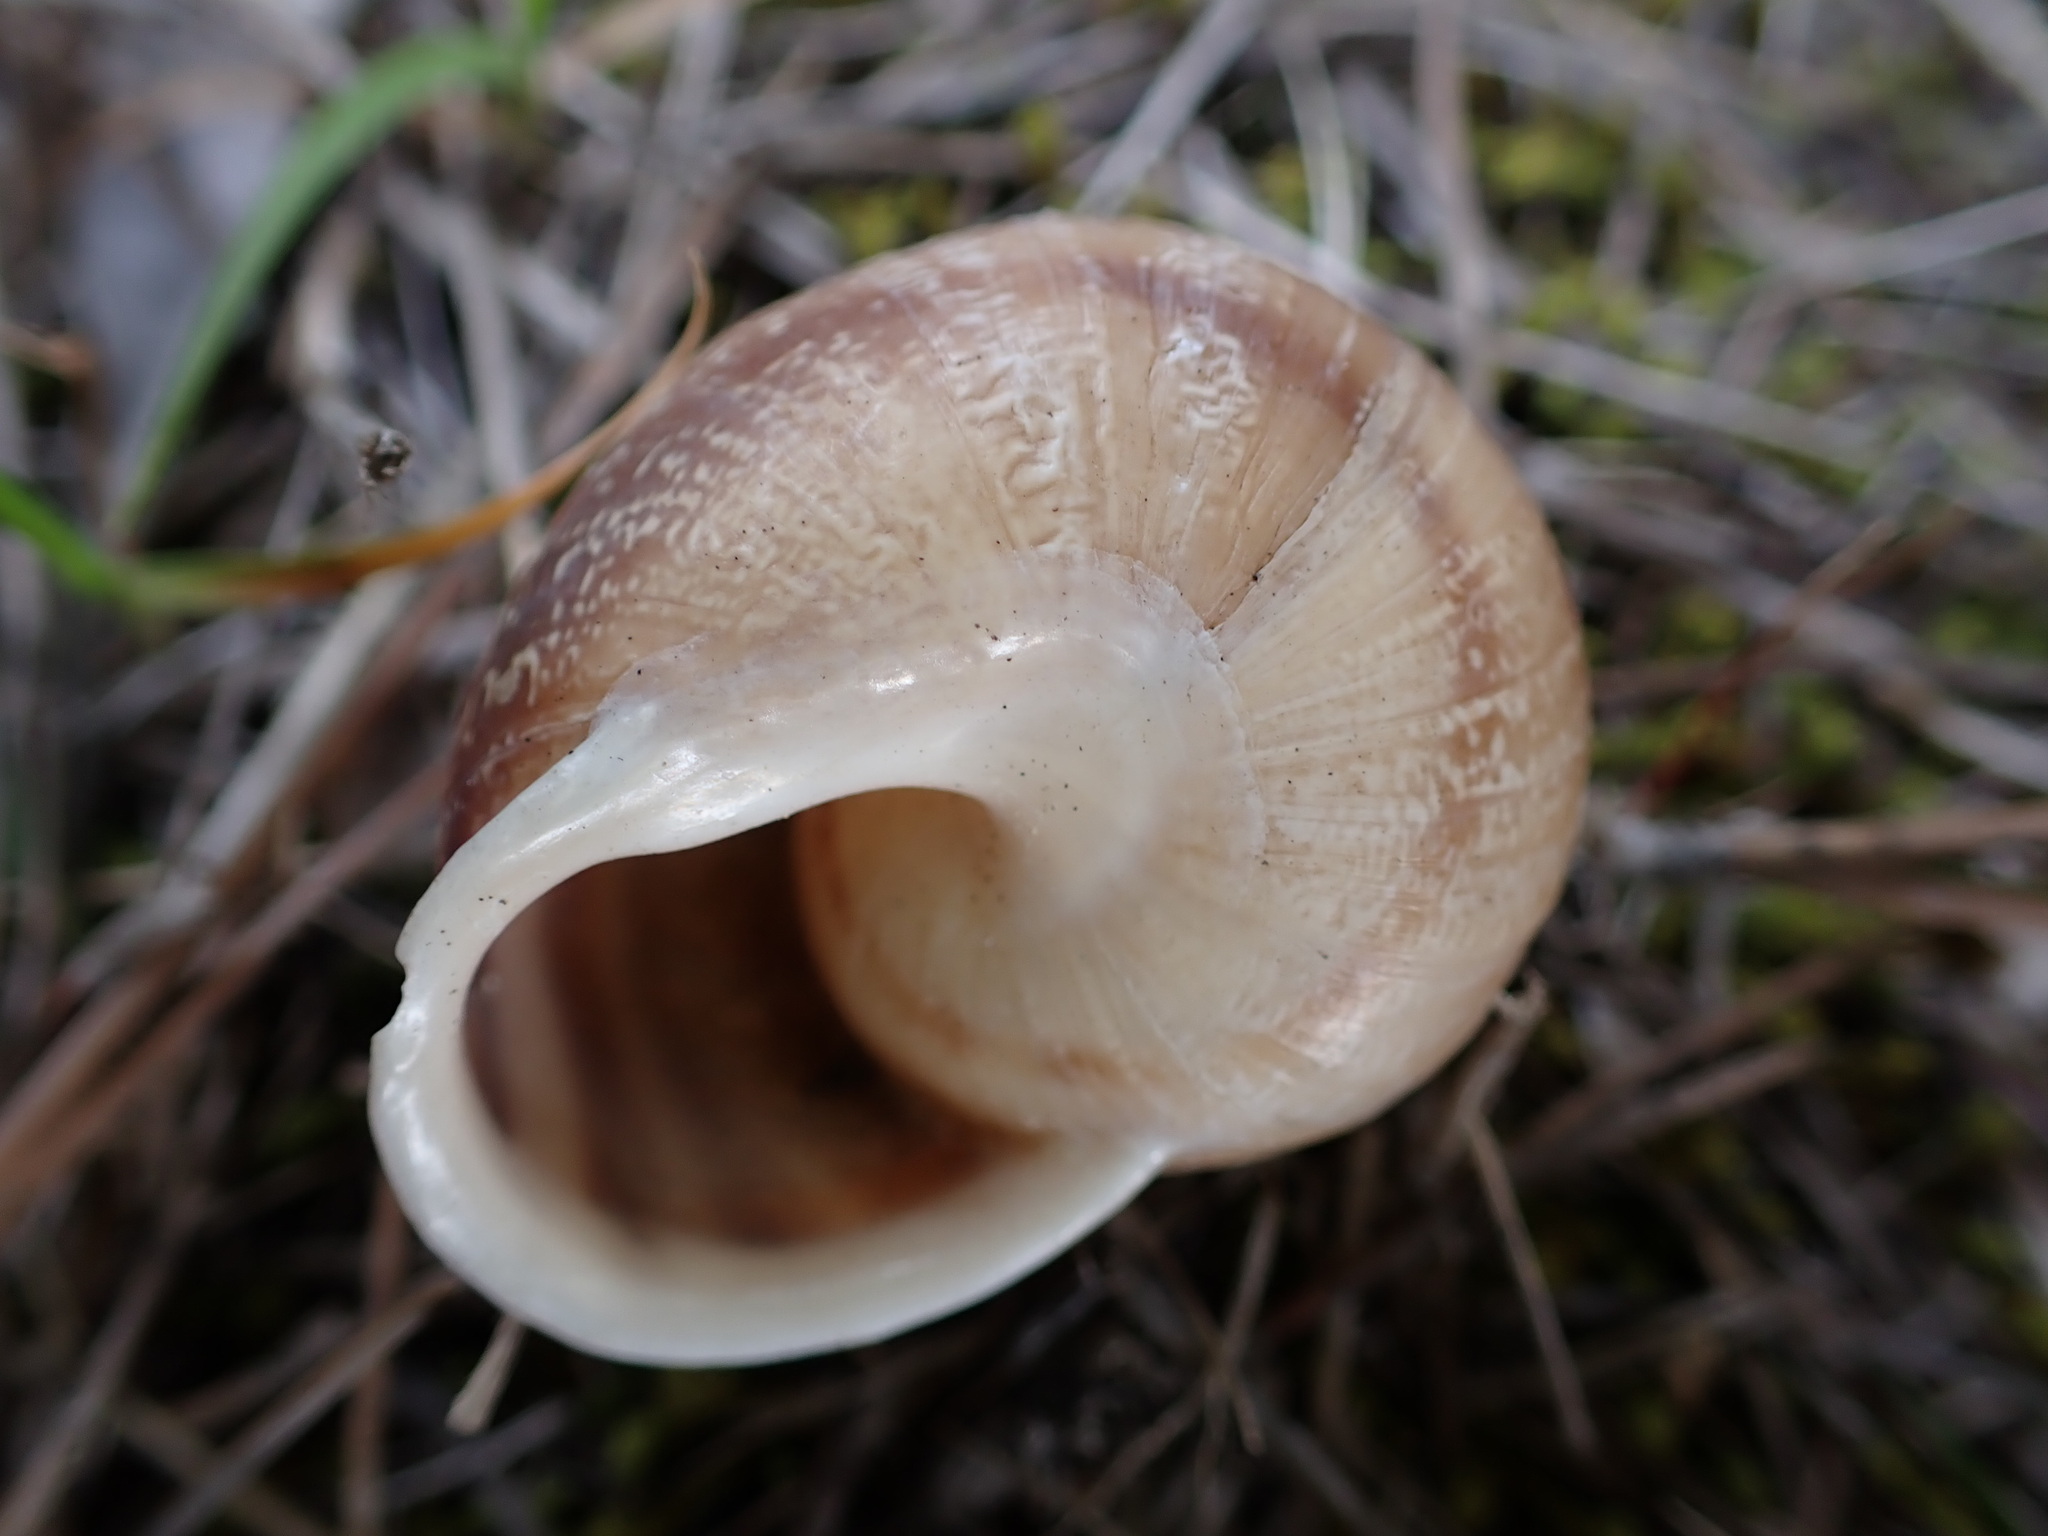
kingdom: Animalia
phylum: Mollusca
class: Gastropoda
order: Stylommatophora
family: Helicidae
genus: Eobania
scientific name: Eobania vermiculata
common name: Chocolateband snail
